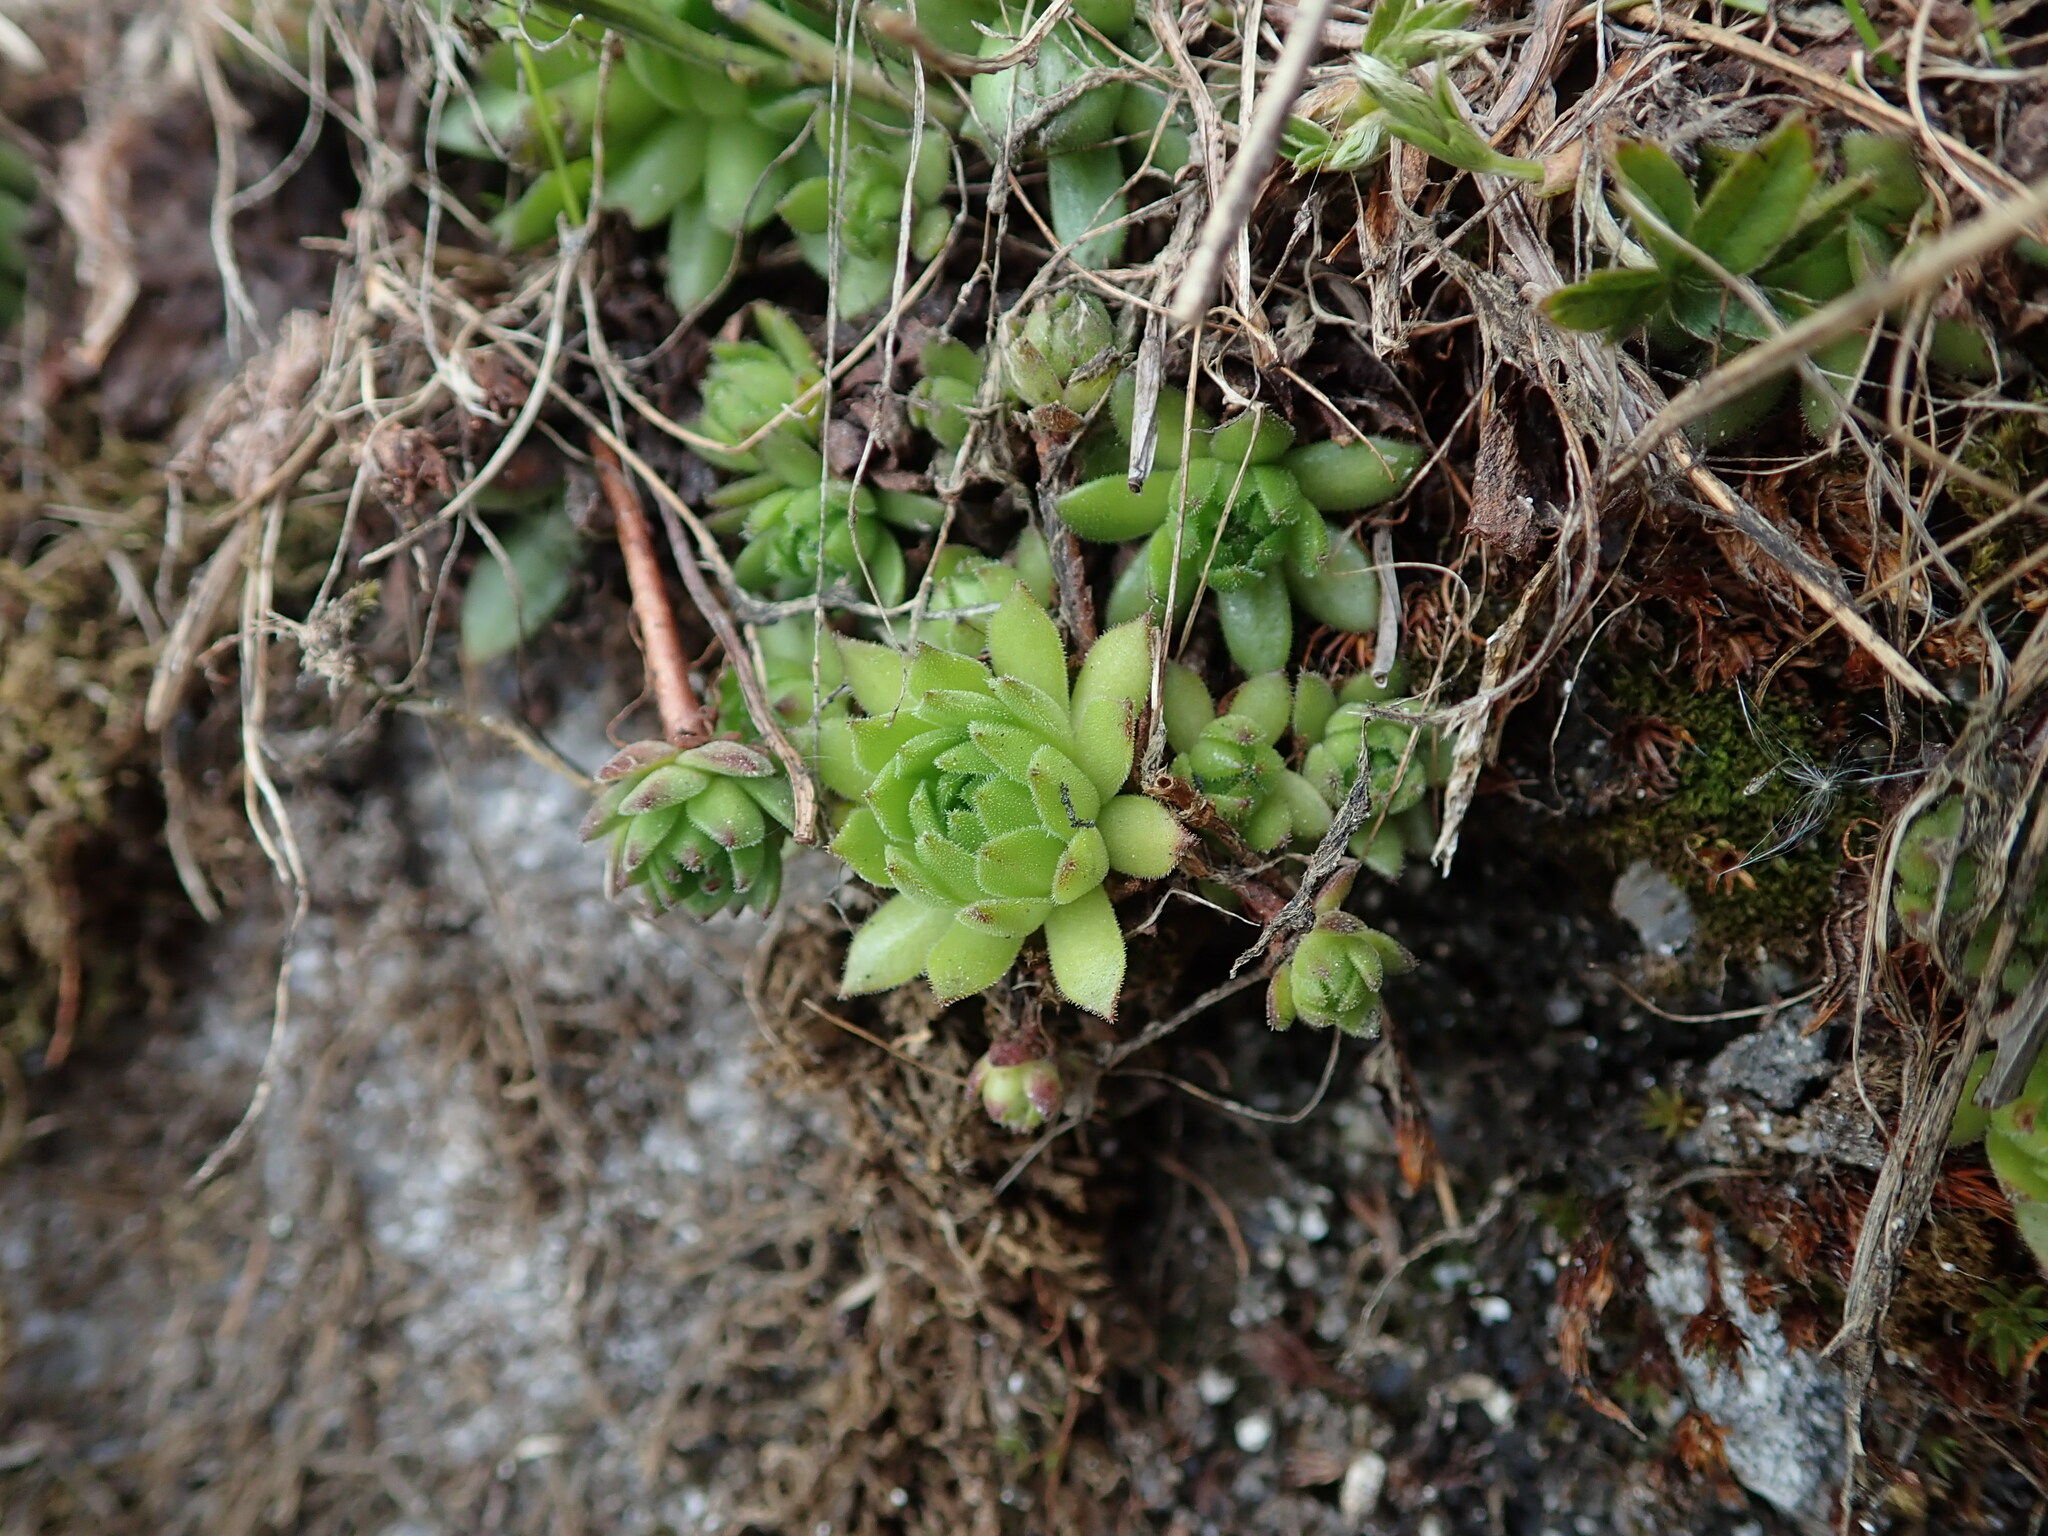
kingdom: Plantae
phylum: Tracheophyta
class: Magnoliopsida
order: Saxifragales
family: Crassulaceae
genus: Sempervivum
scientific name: Sempervivum montanum
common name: Mountain house-leek
